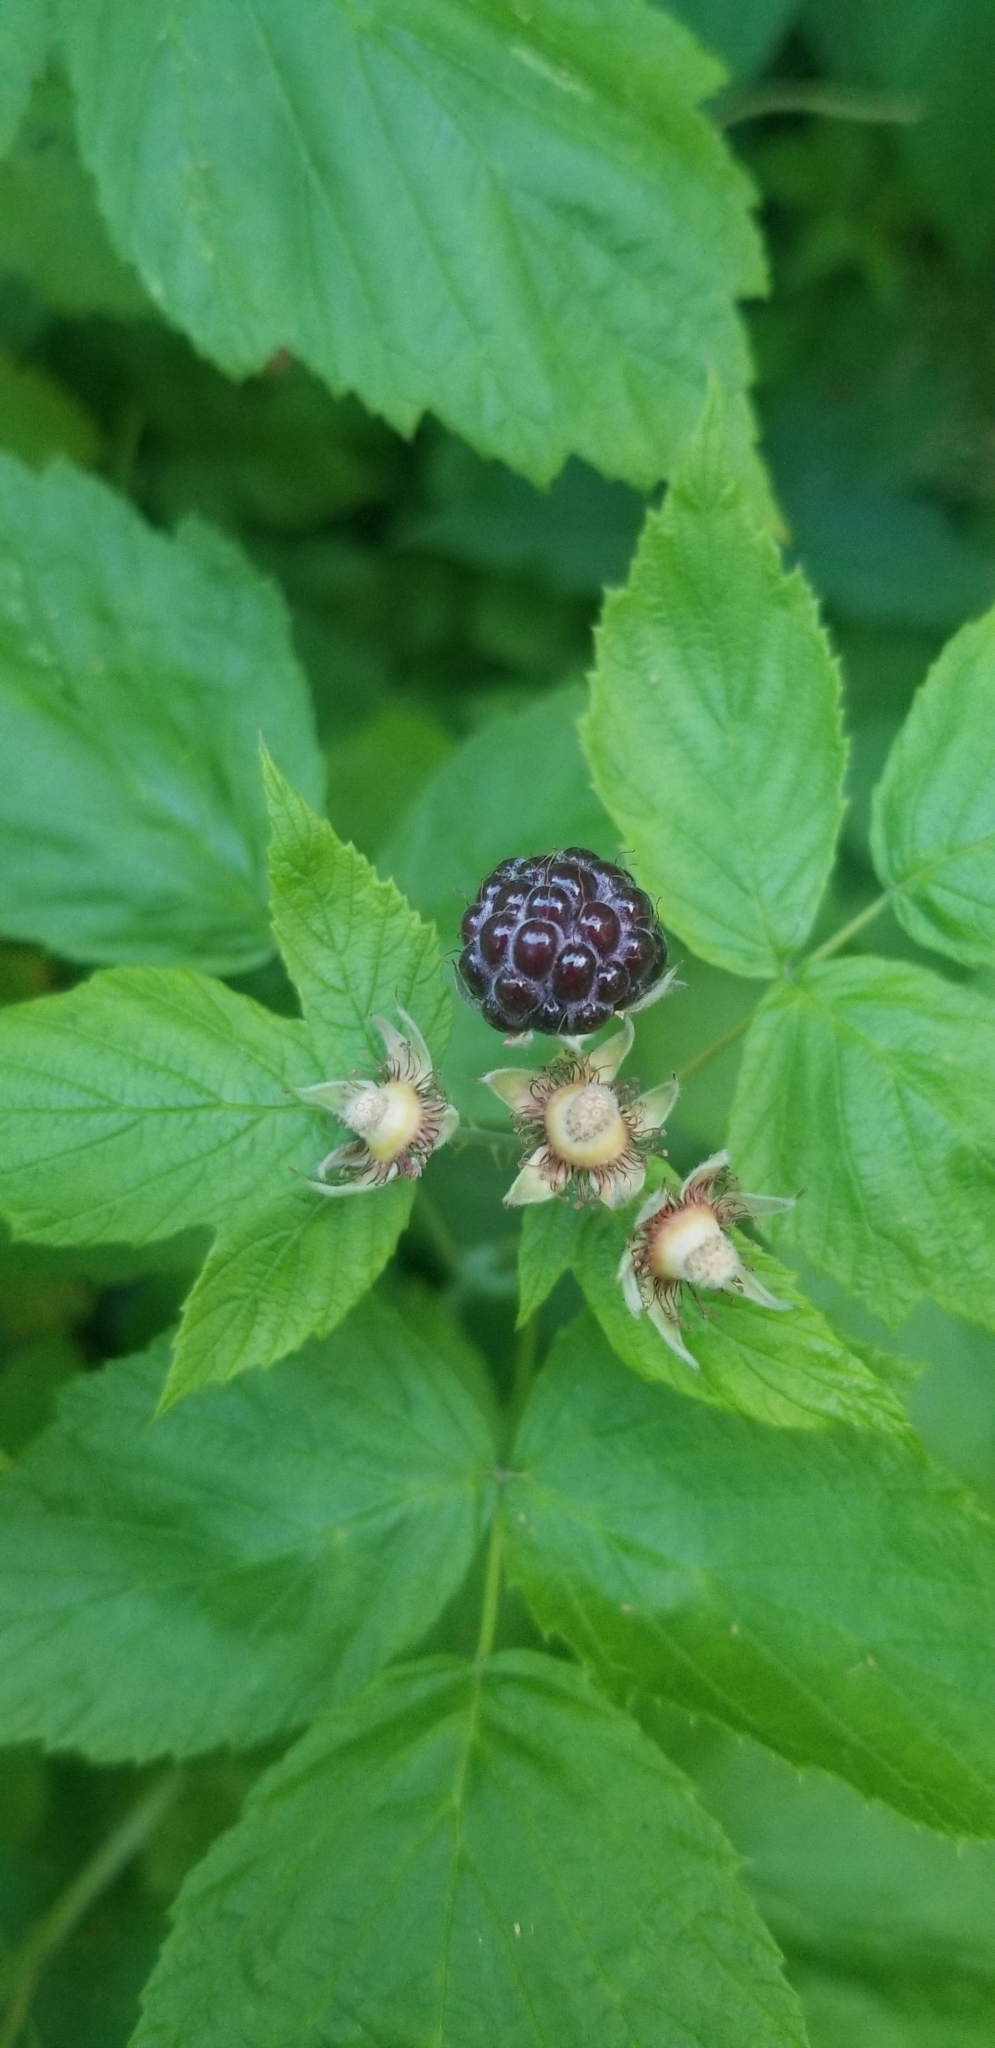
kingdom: Plantae
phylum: Tracheophyta
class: Magnoliopsida
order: Rosales
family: Rosaceae
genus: Rubus
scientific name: Rubus occidentalis
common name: Black raspberry
